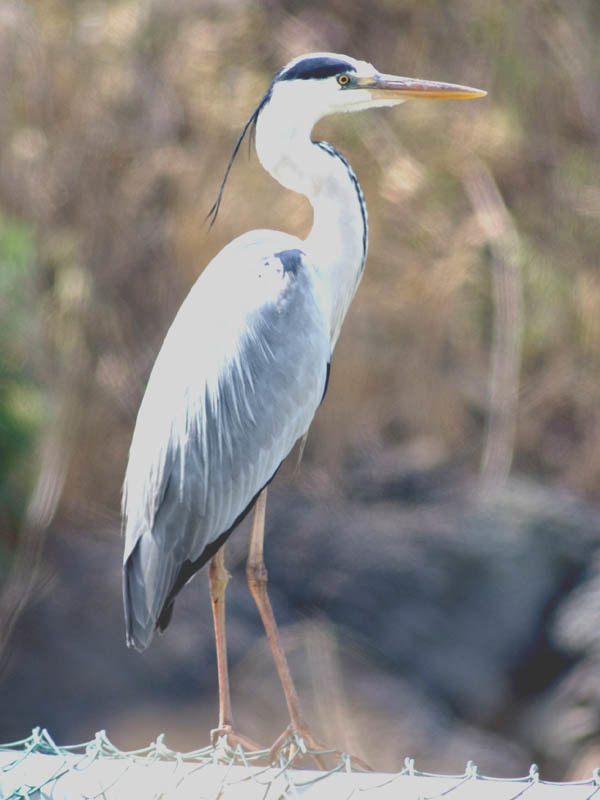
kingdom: Animalia
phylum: Chordata
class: Aves
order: Pelecaniformes
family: Ardeidae
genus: Ardea
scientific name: Ardea cinerea
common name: Grey heron
